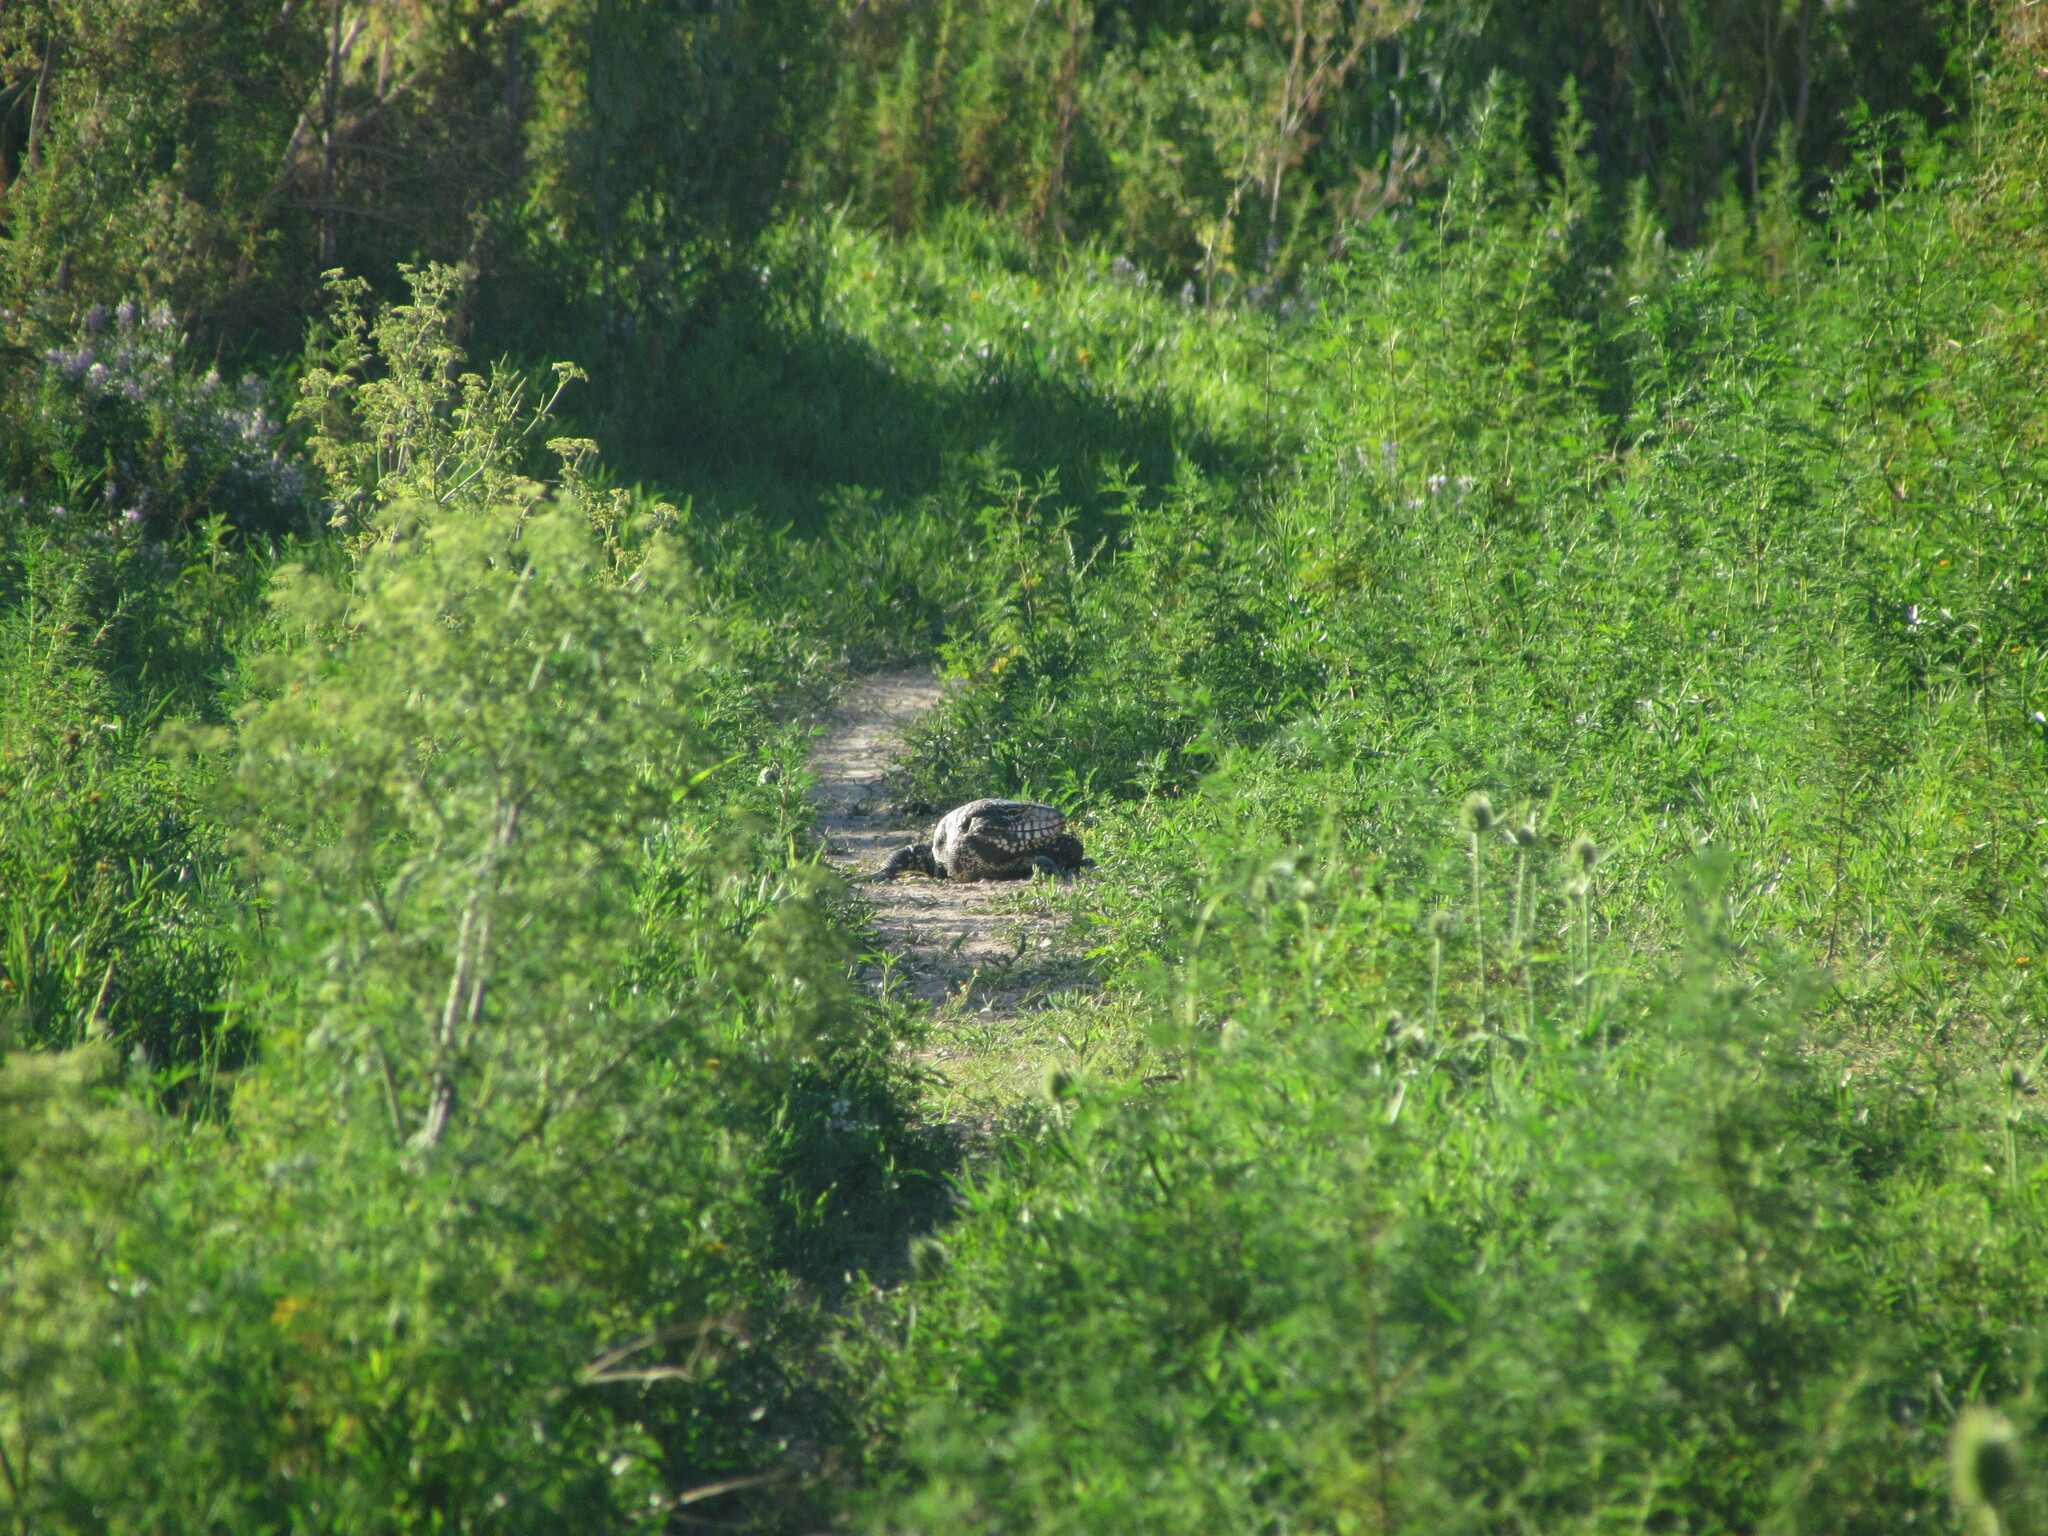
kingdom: Animalia
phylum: Chordata
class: Squamata
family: Teiidae
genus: Salvator
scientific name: Salvator merianae
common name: Argentine black and white tegu
